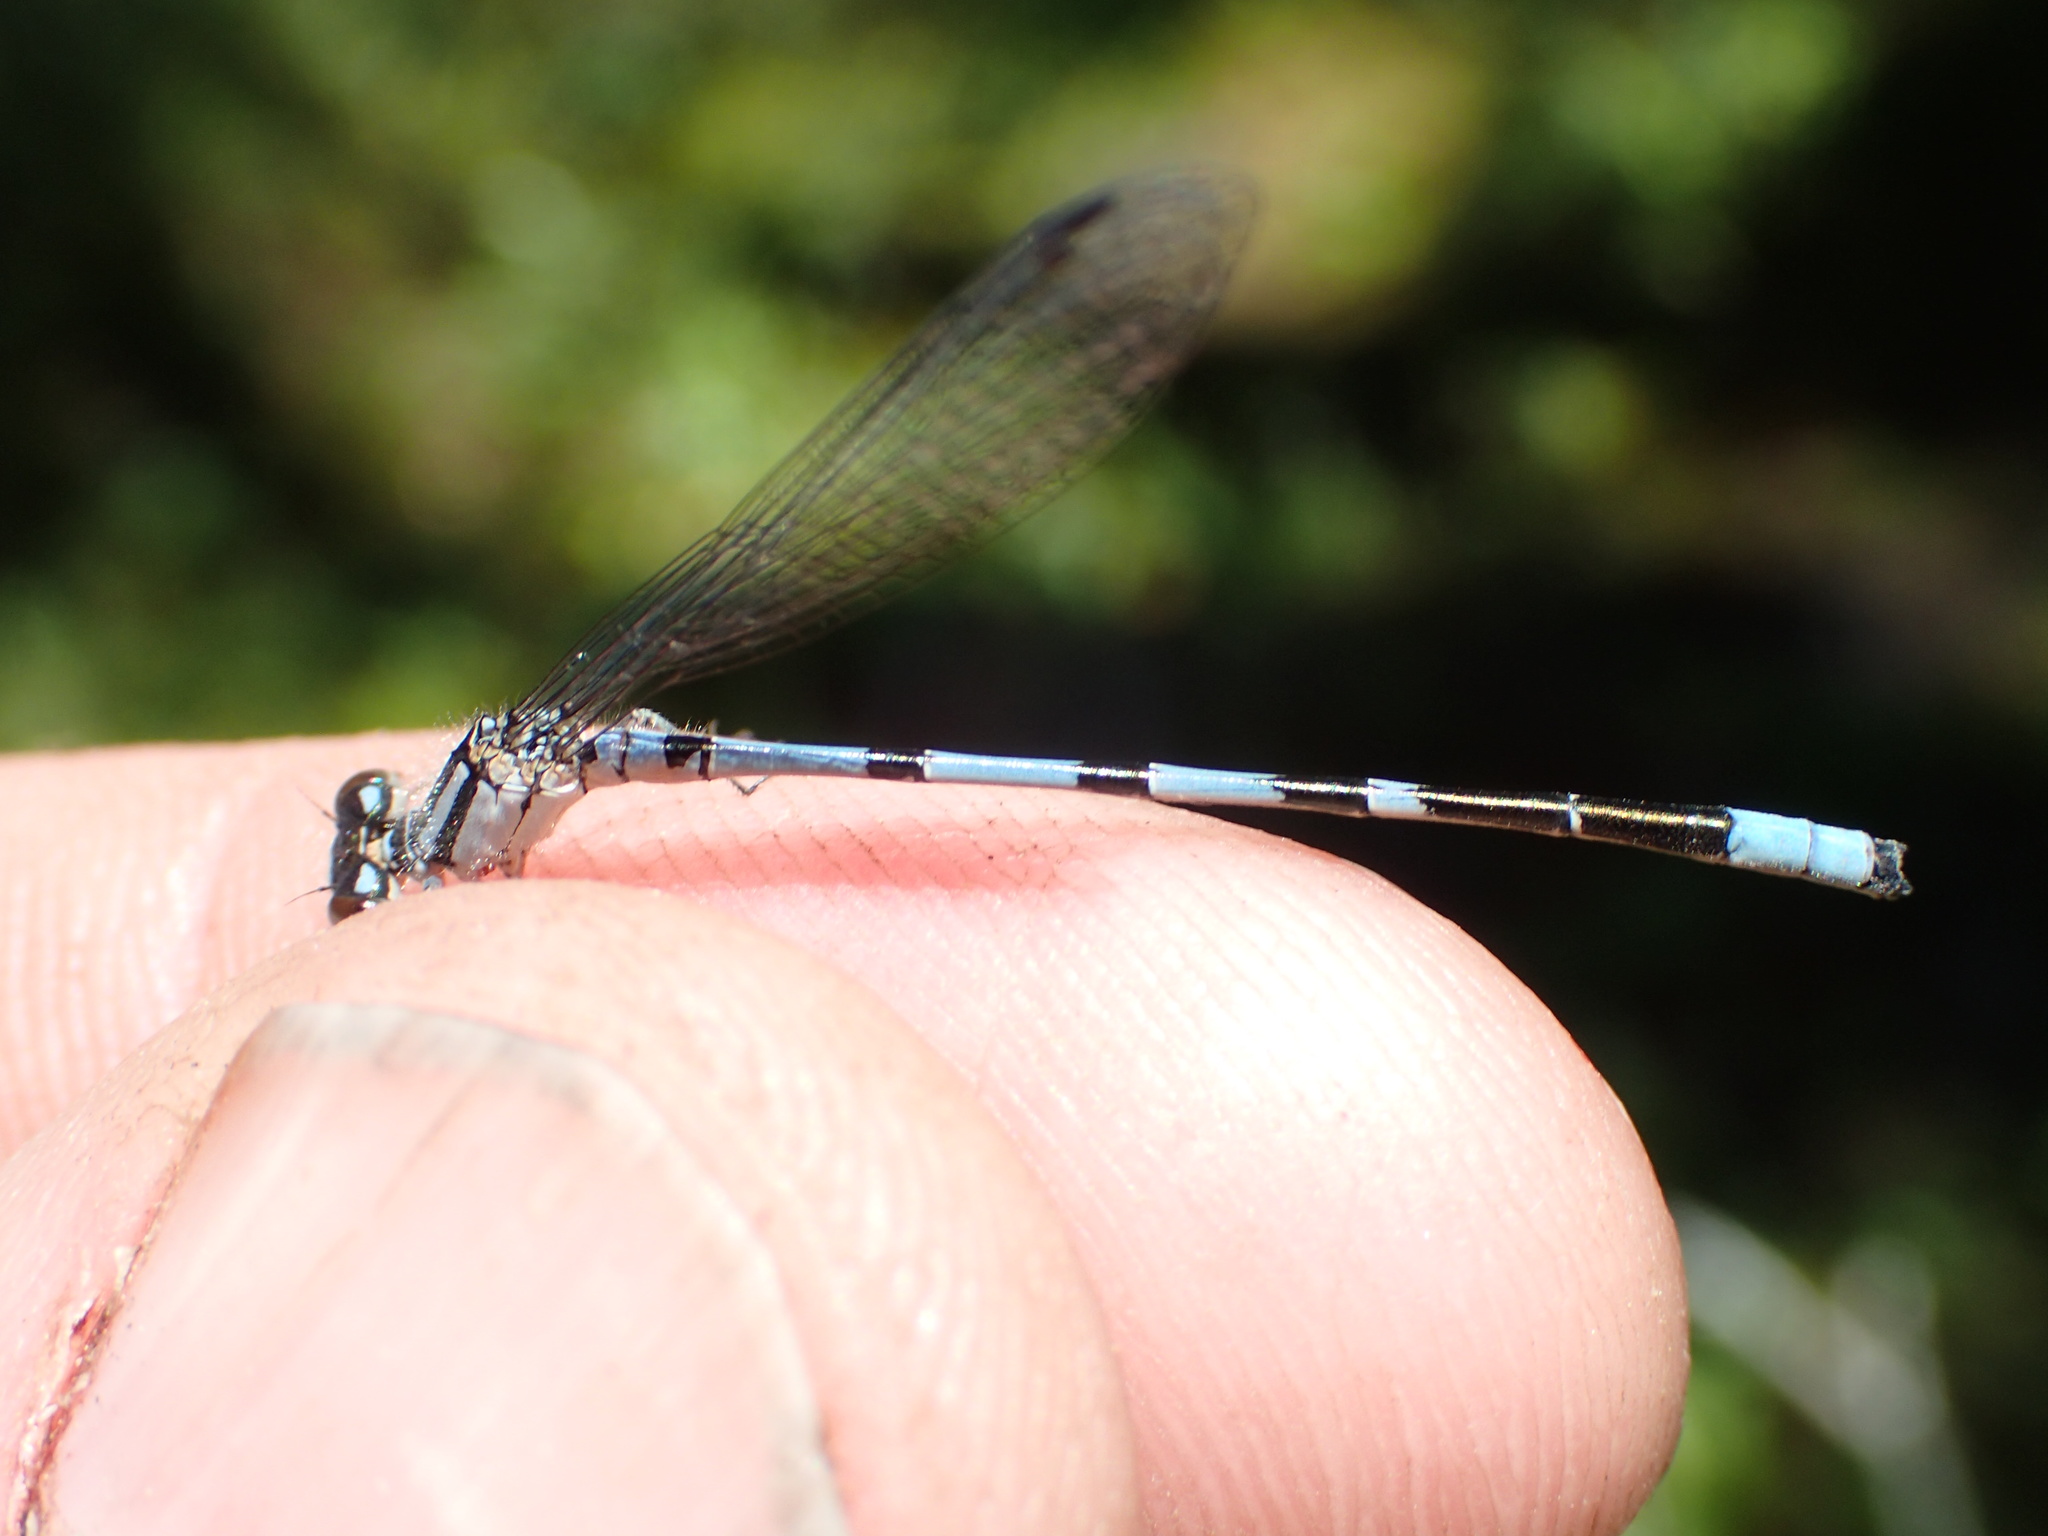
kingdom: Animalia
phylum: Arthropoda
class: Insecta
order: Odonata
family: Coenagrionidae
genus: Enallagma
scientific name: Enallagma ebrium
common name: Marsh bluet
